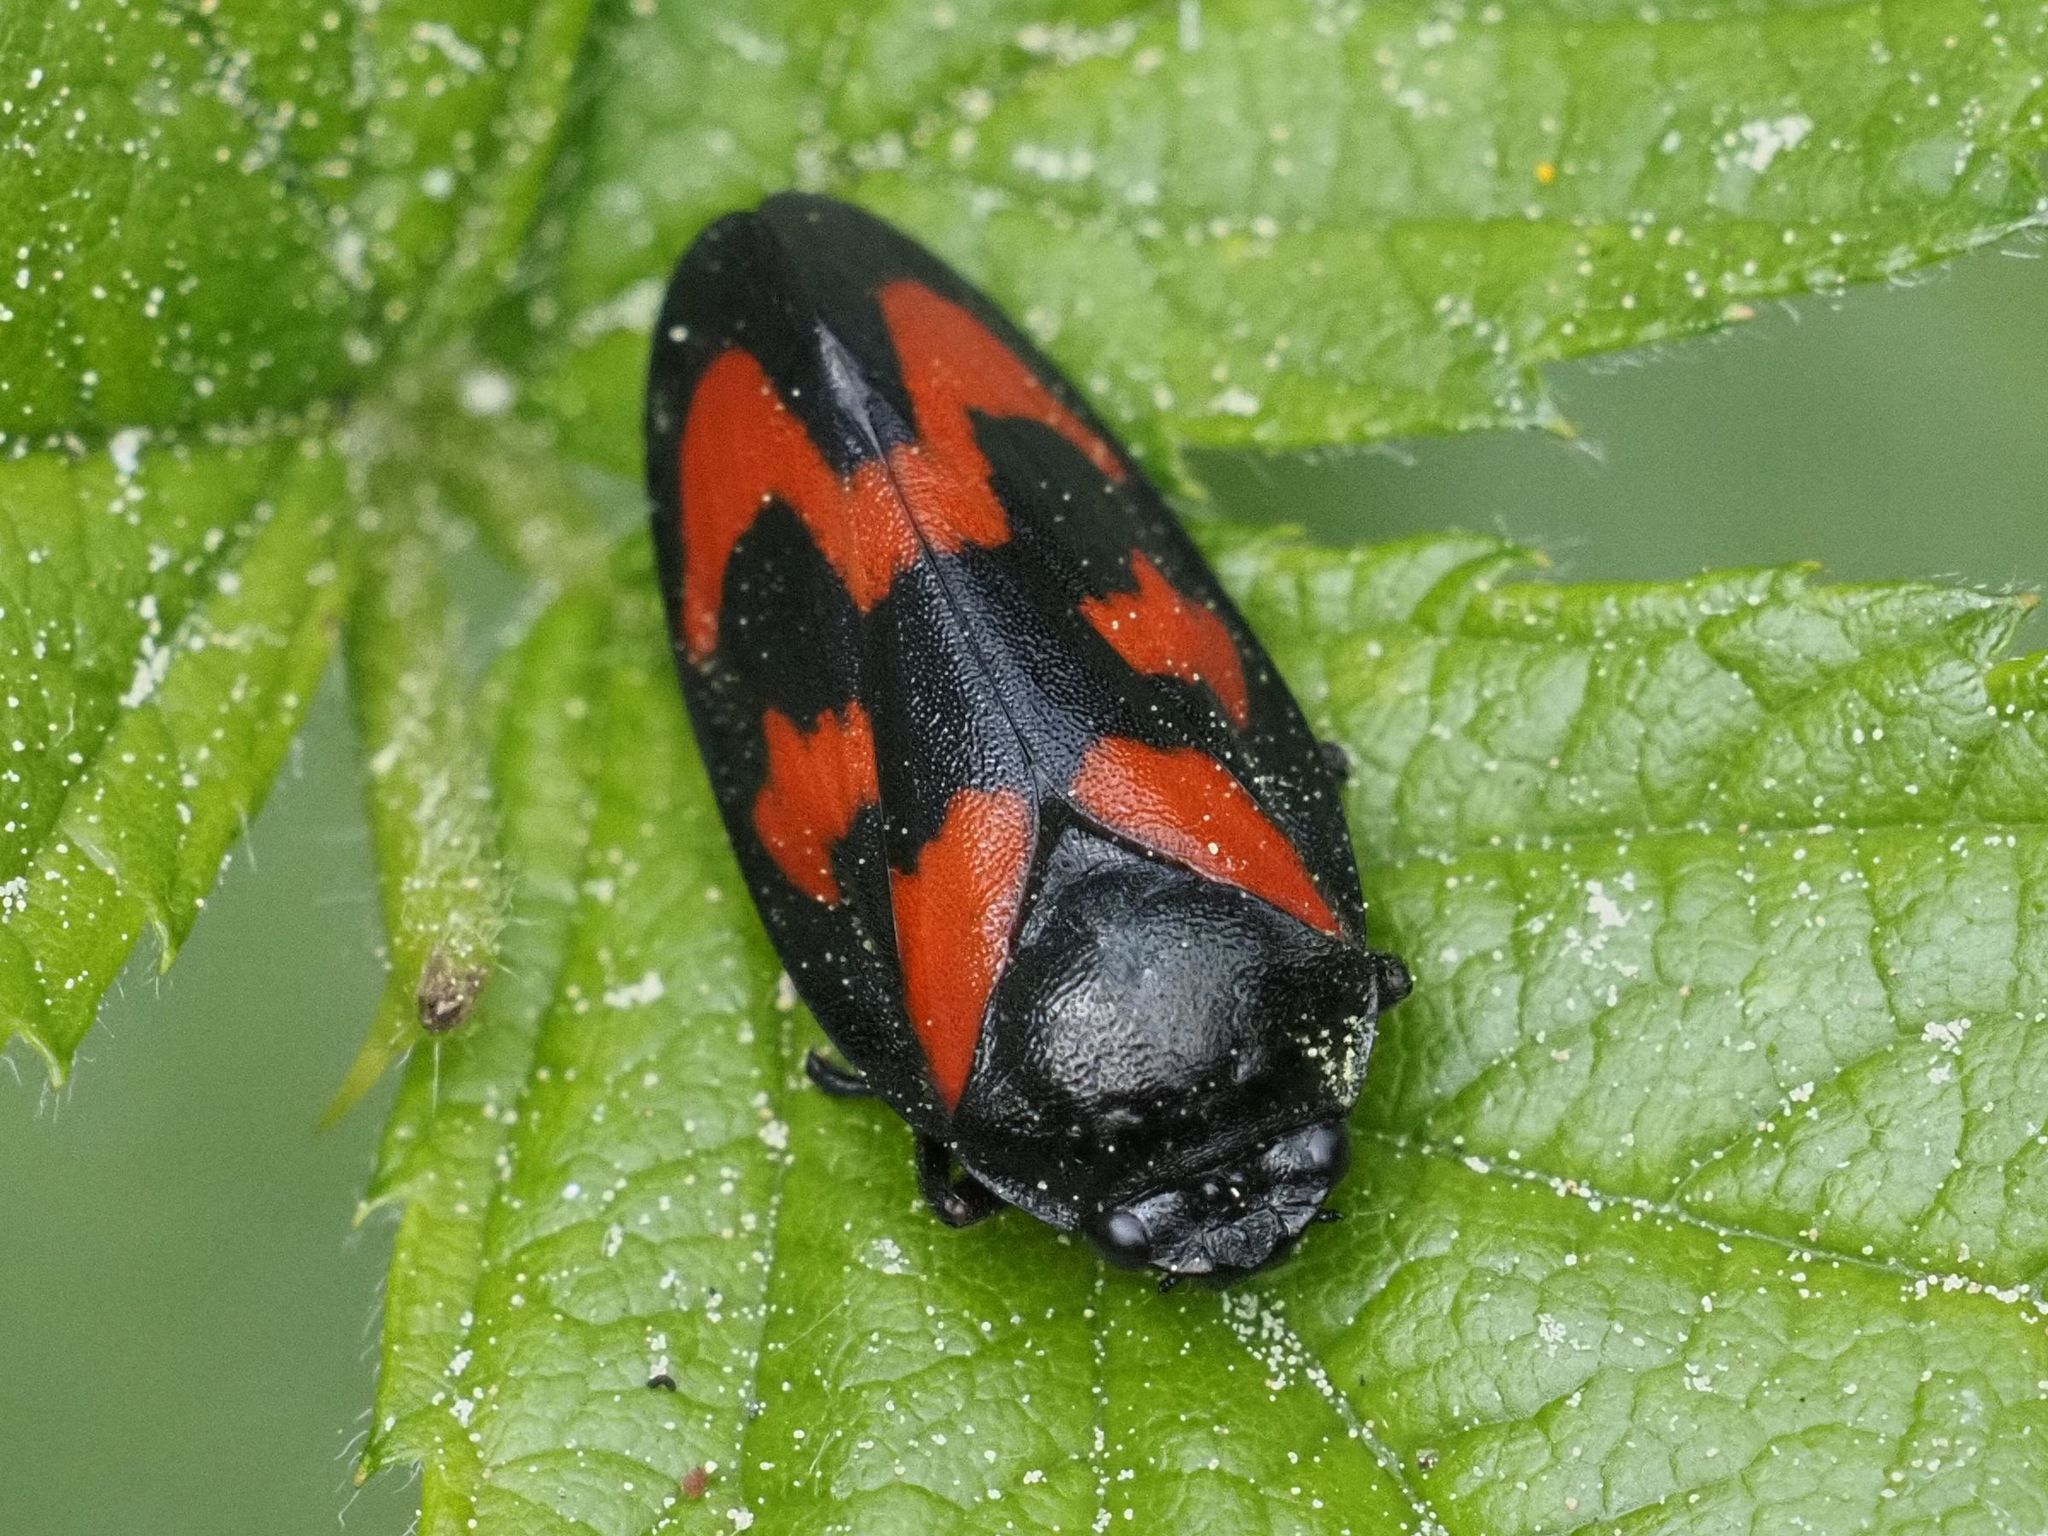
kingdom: Animalia
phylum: Arthropoda
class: Insecta
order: Hemiptera
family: Cercopidae
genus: Cercopis
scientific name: Cercopis vulnerata
